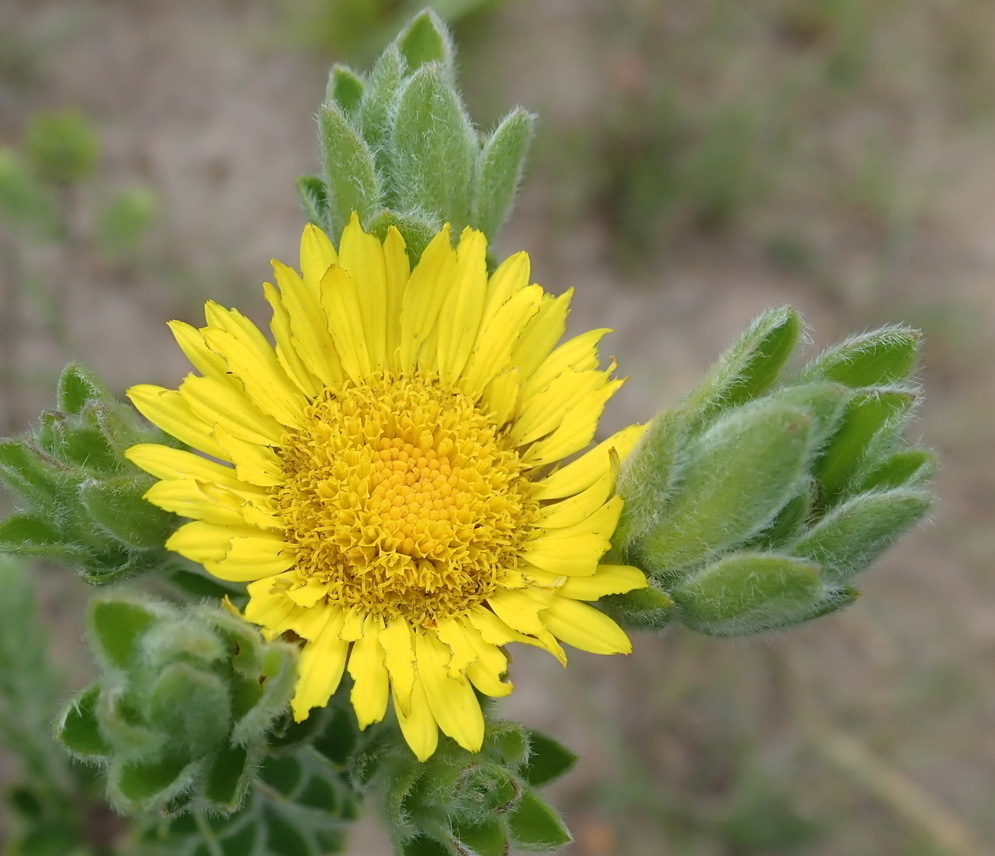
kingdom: Plantae
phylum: Tracheophyta
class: Magnoliopsida
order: Asterales
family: Asteraceae
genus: Oedera
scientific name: Oedera calycina
